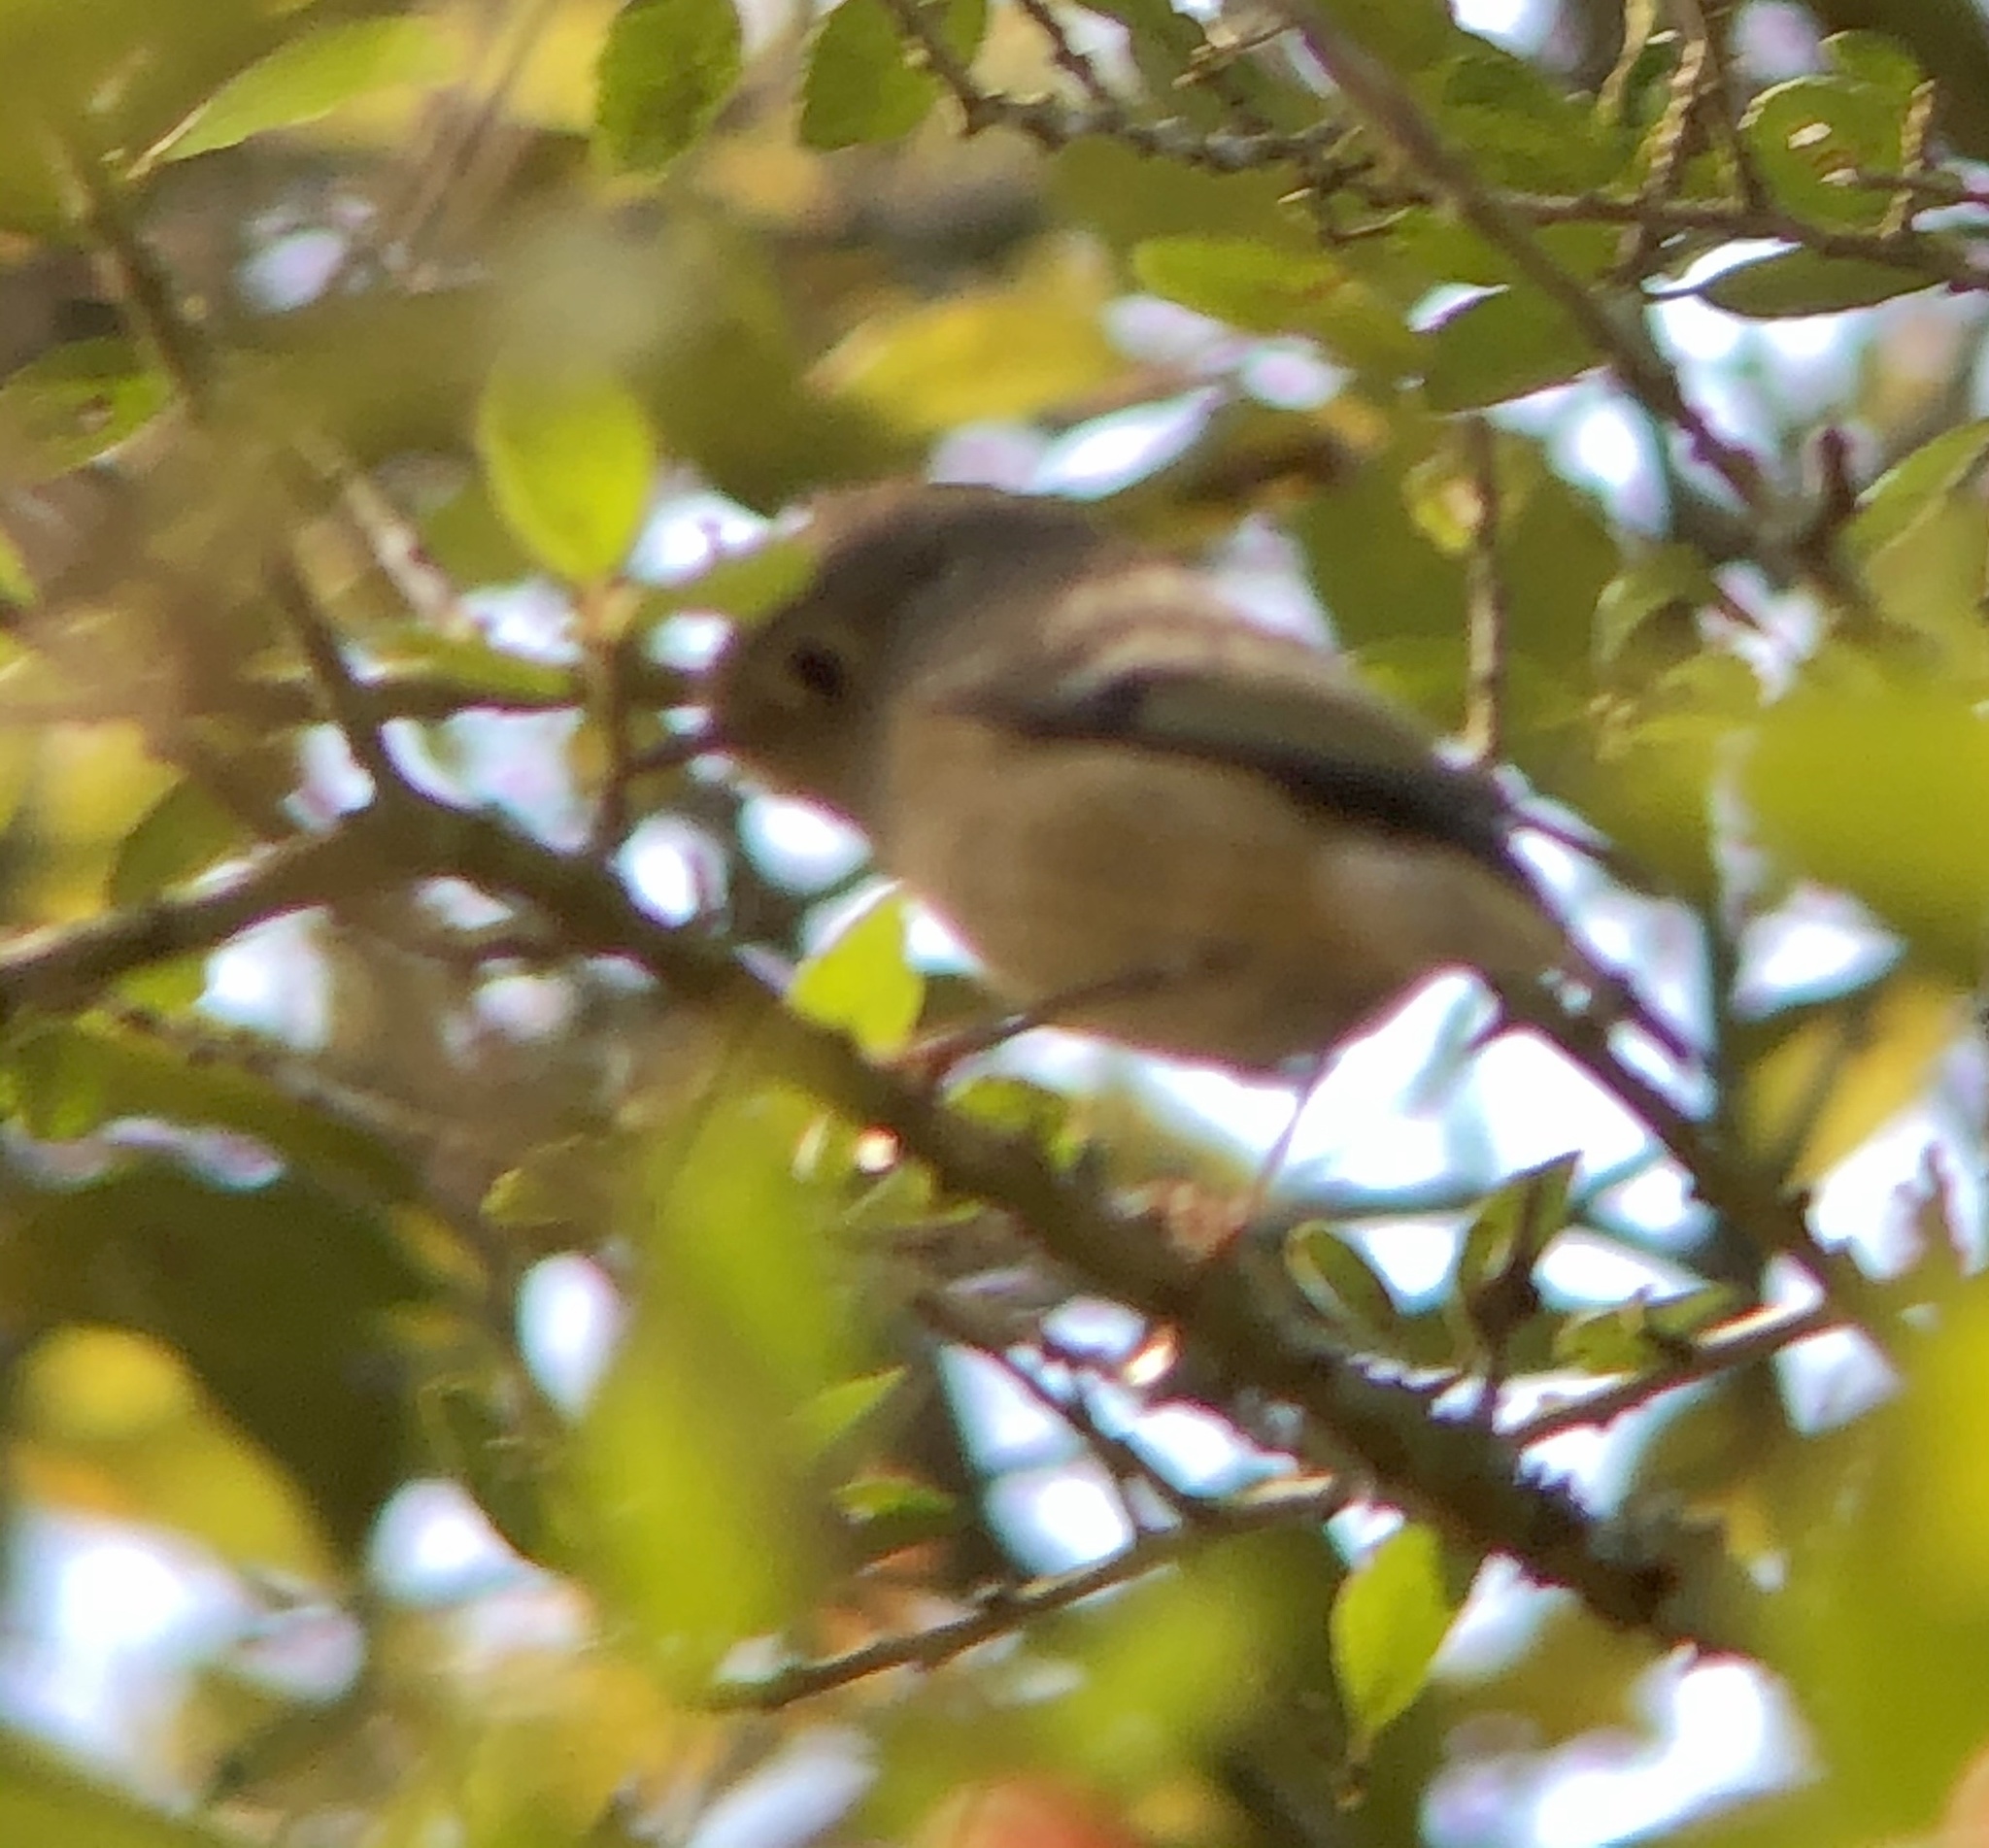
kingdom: Animalia
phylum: Chordata
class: Aves
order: Passeriformes
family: Regulidae
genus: Regulus
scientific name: Regulus calendula
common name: Ruby-crowned kinglet
